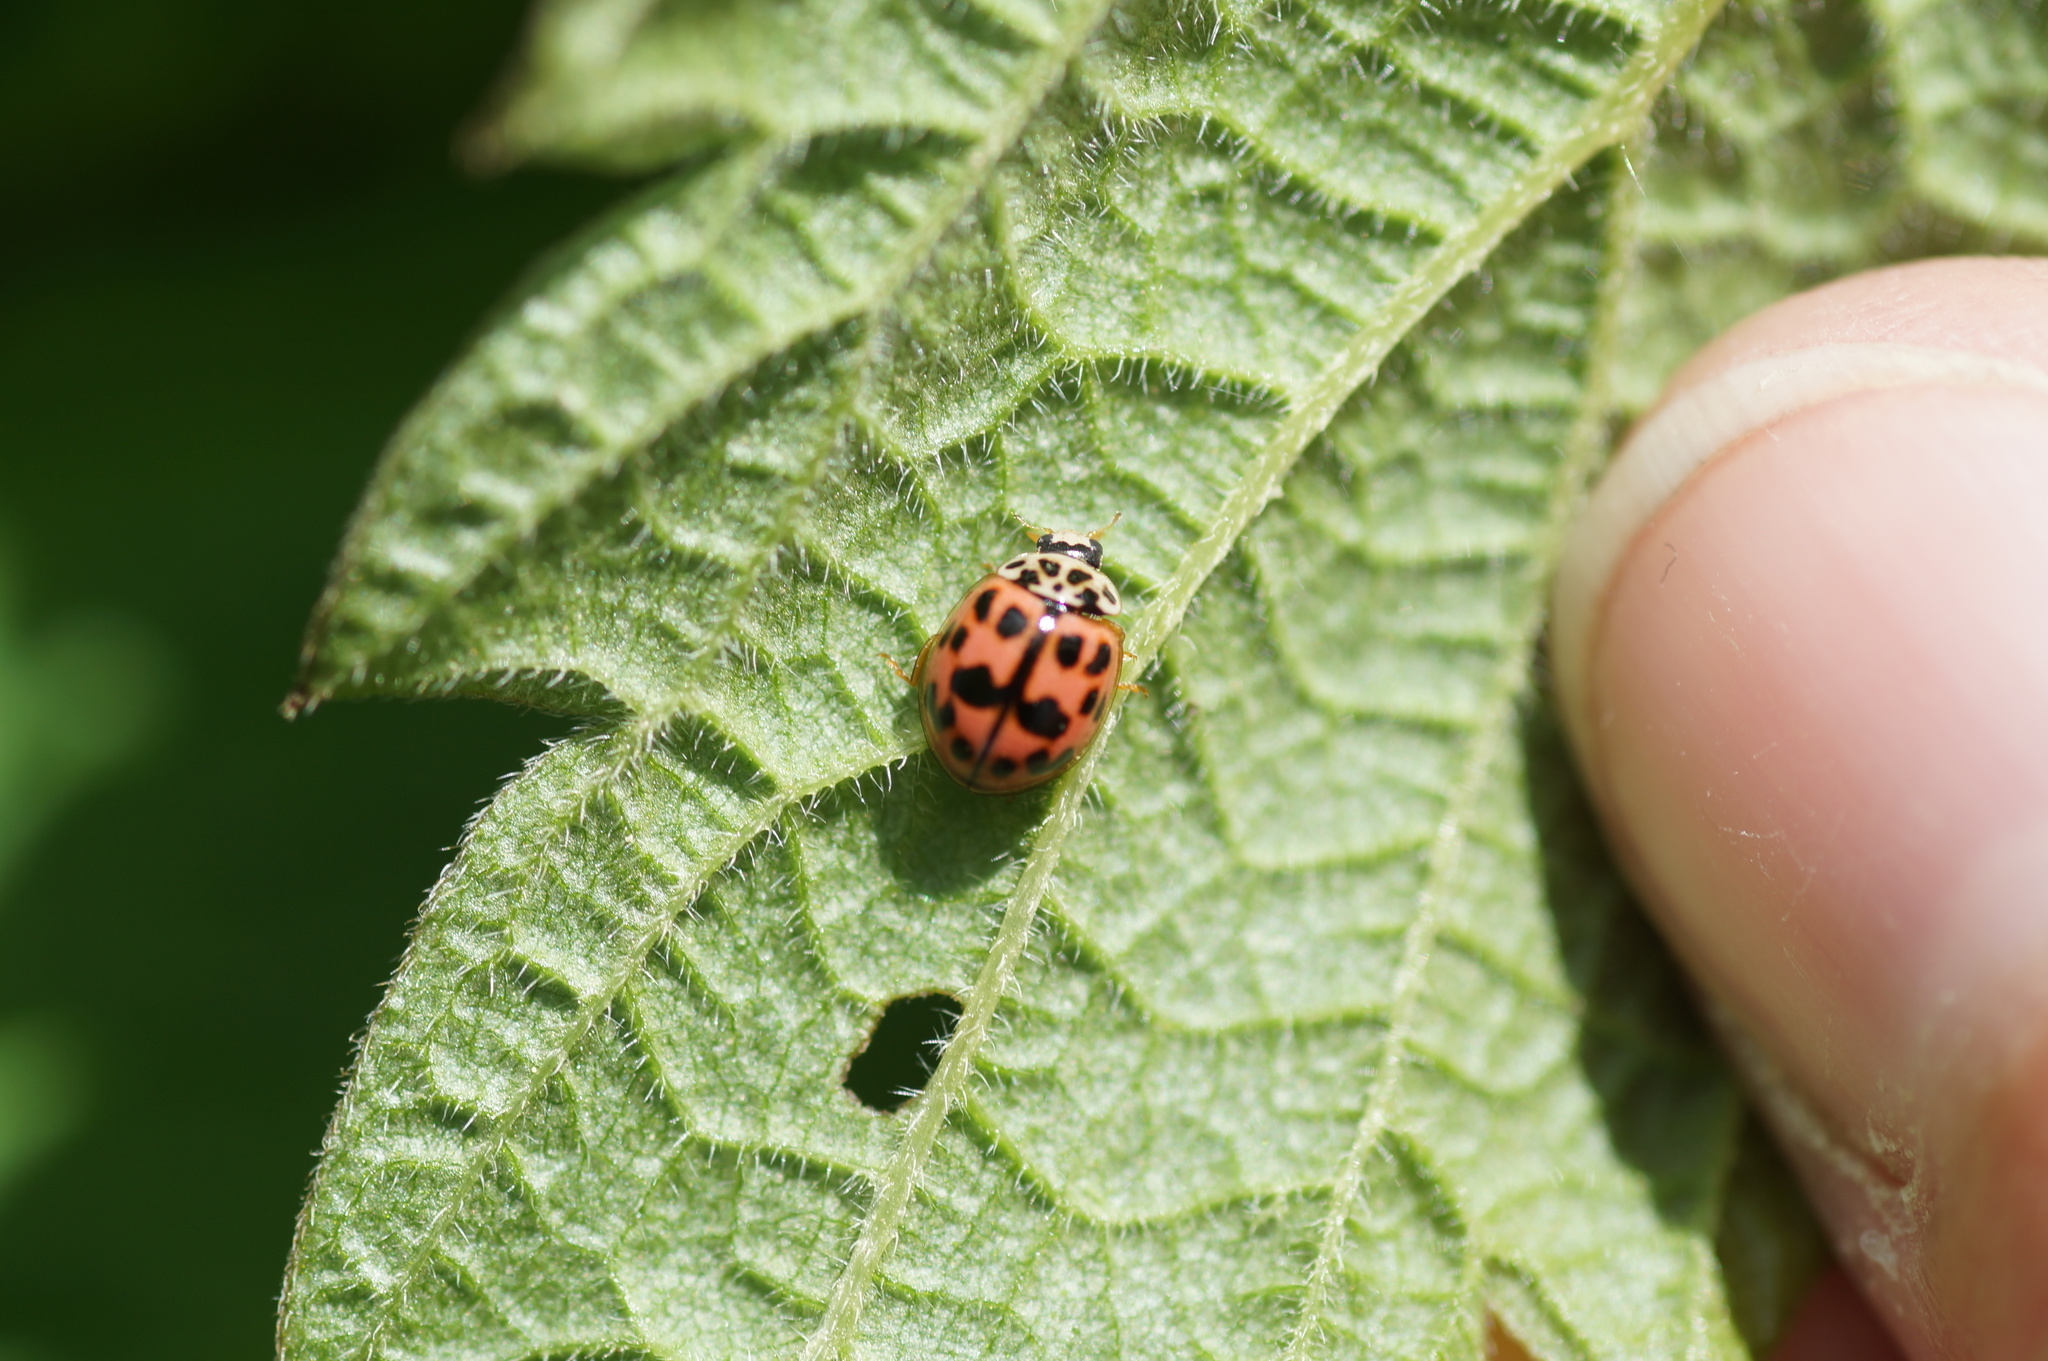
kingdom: Animalia
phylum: Arthropoda
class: Insecta
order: Coleoptera
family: Coccinellidae
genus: Oenopia
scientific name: Oenopia conglobata
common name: Ladybird beetle
